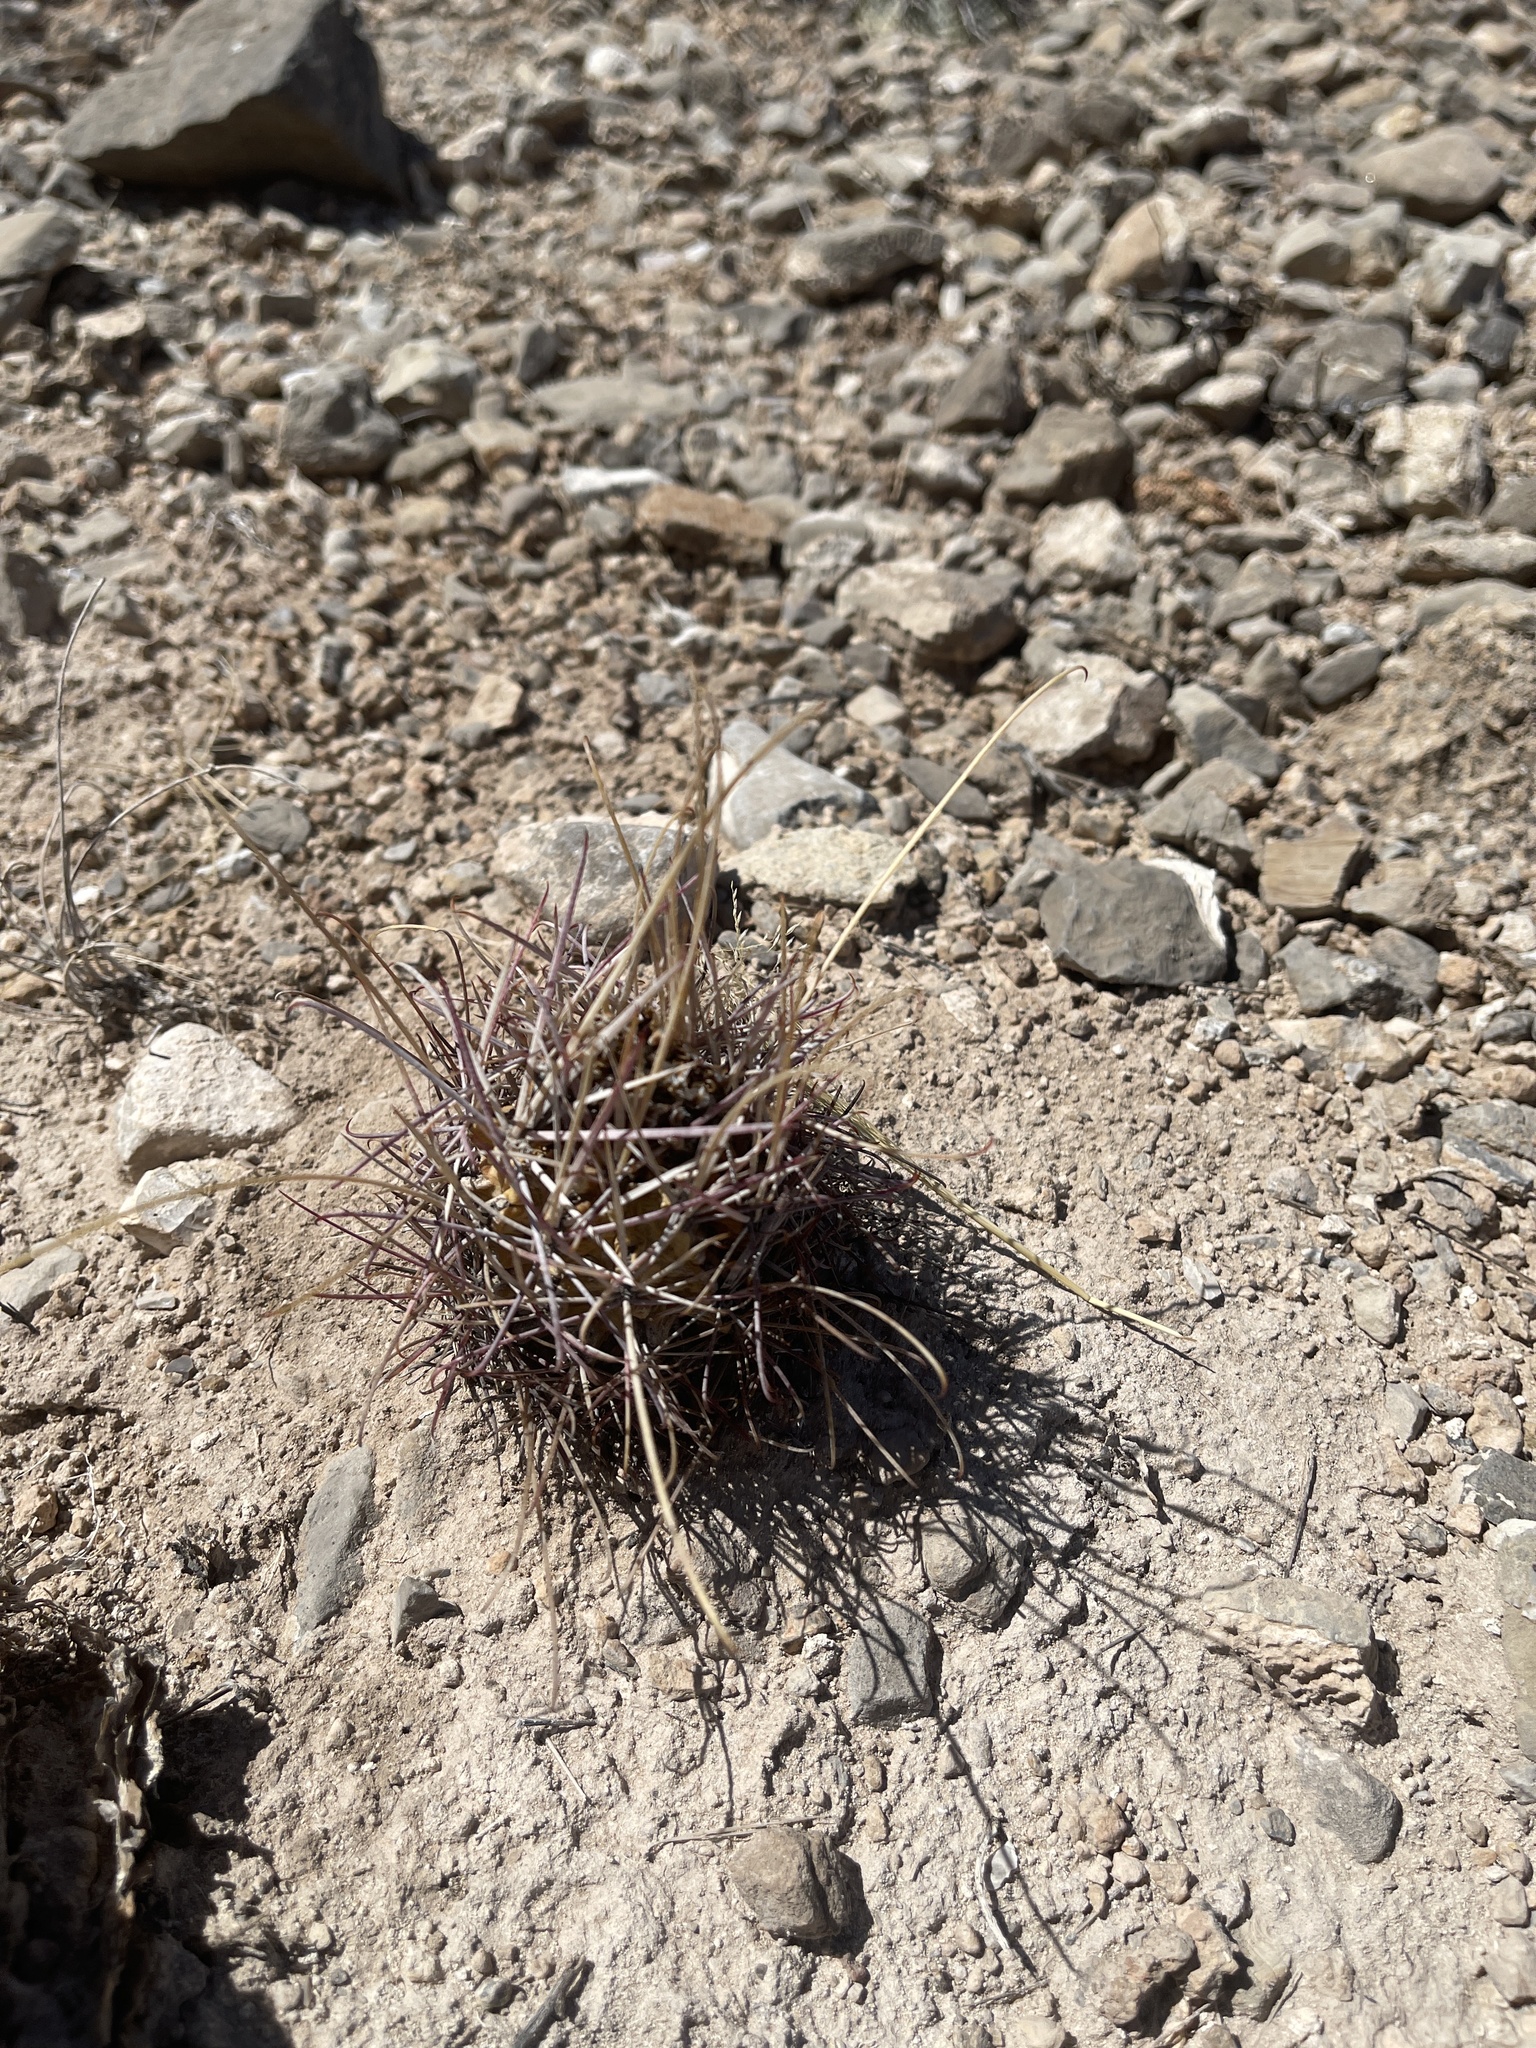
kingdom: Plantae
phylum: Tracheophyta
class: Magnoliopsida
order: Caryophyllales
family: Cactaceae
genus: Ferocactus
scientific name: Ferocactus uncinatus
